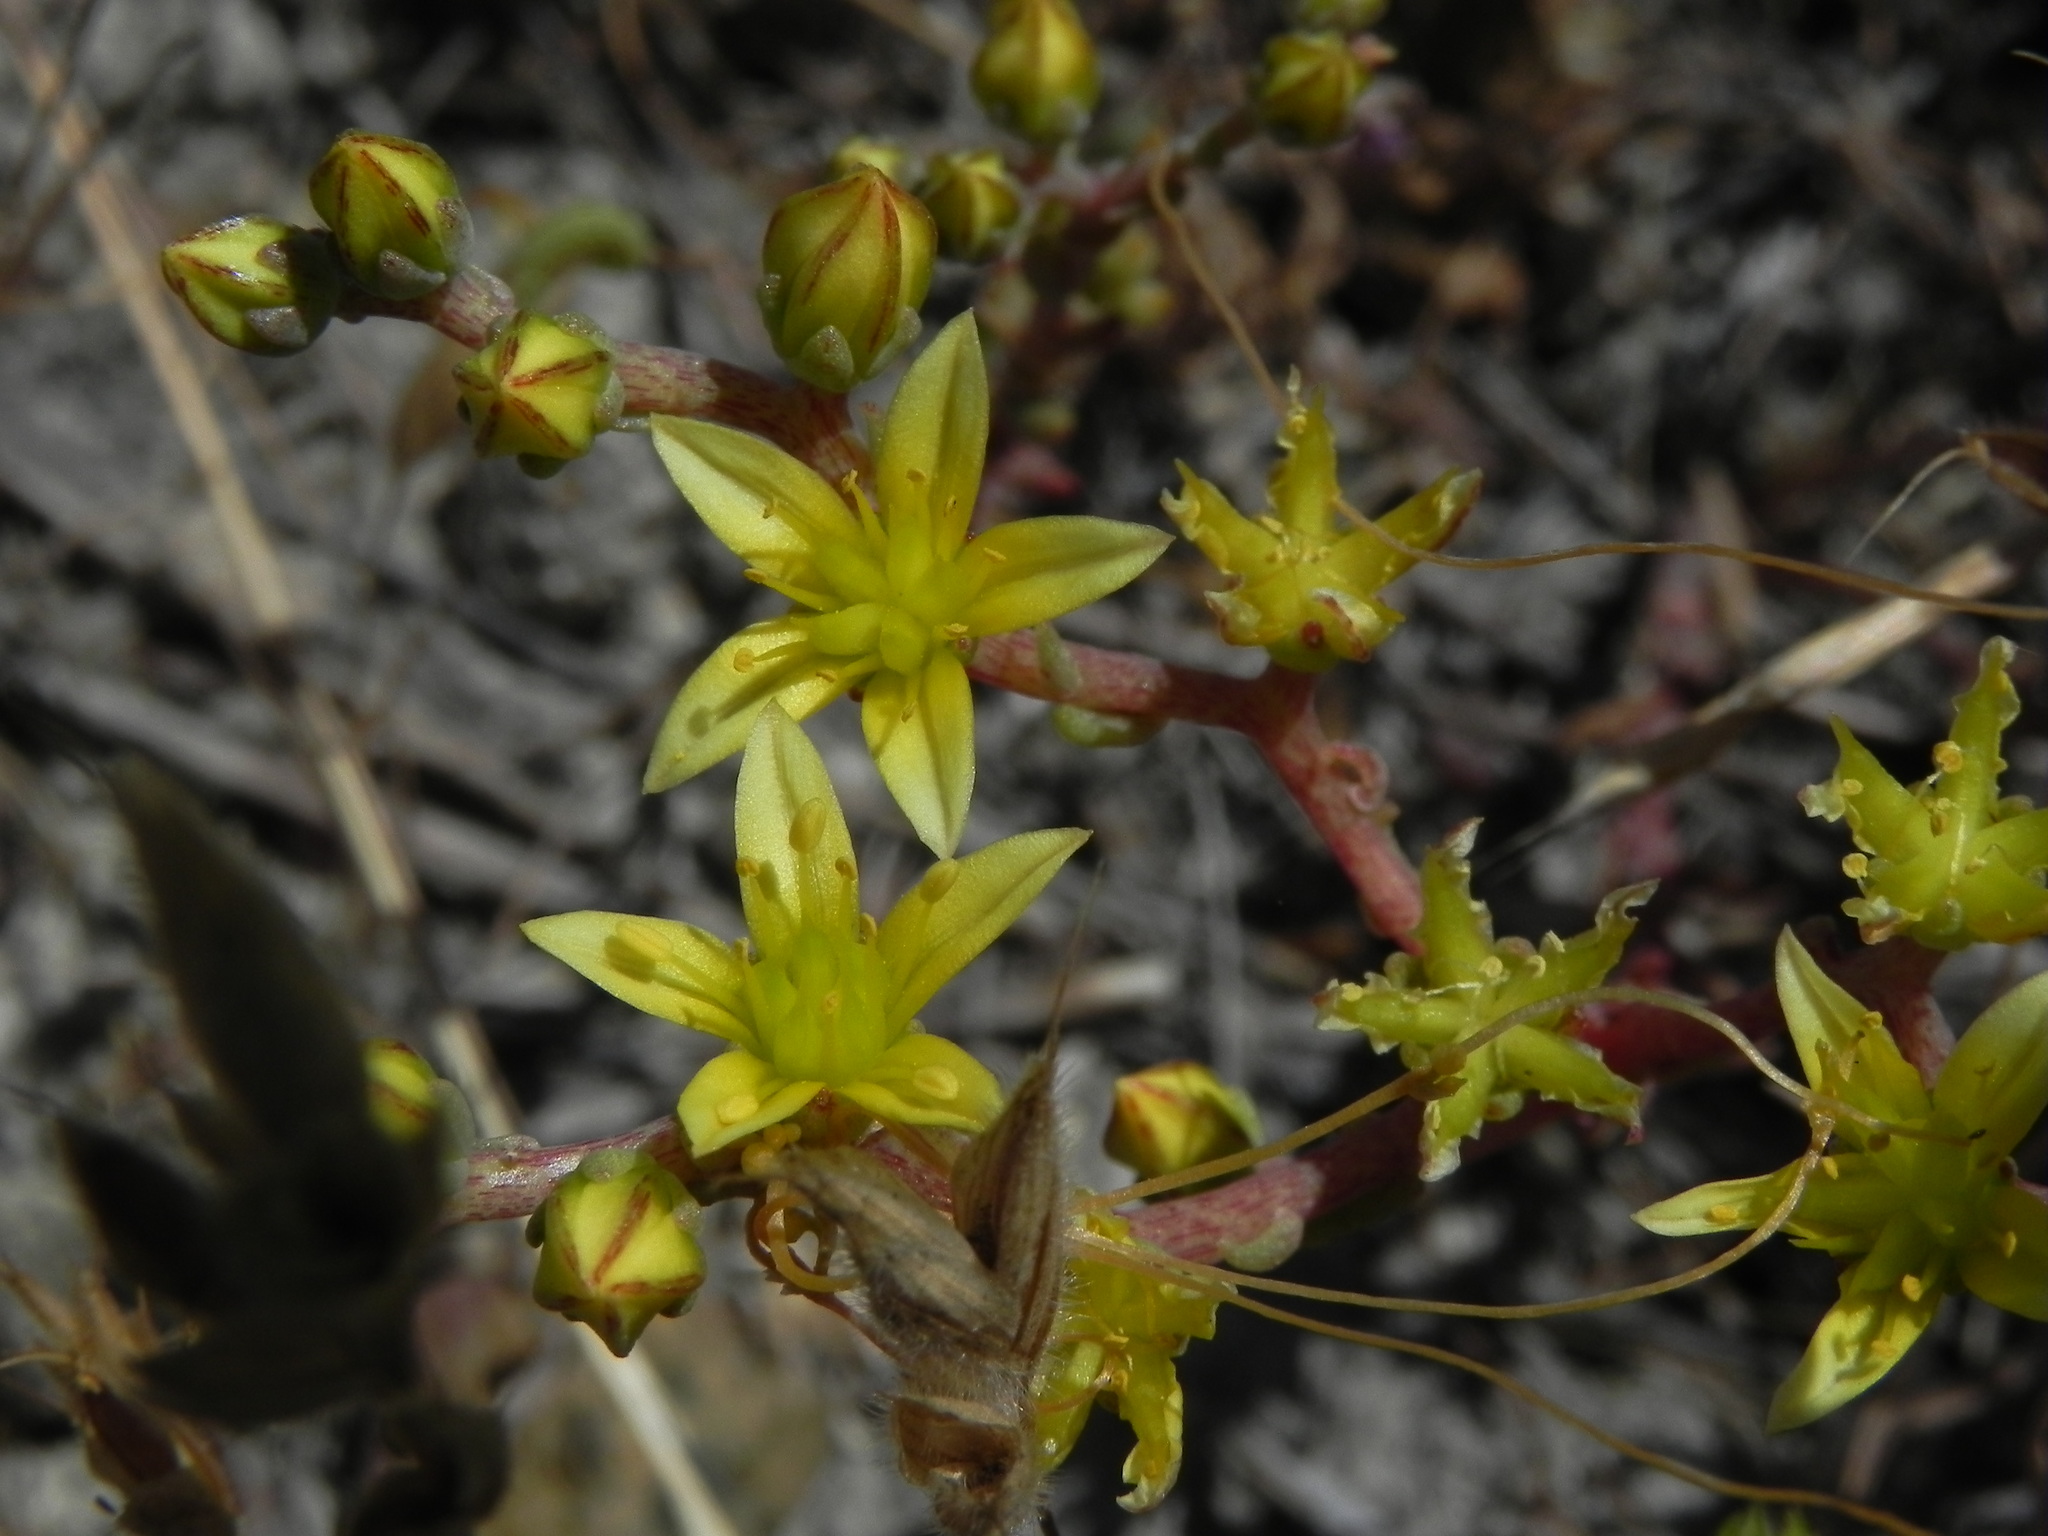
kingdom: Plantae
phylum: Tracheophyta
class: Magnoliopsida
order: Saxifragales
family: Crassulaceae
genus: Dudleya
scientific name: Dudleya variegata
